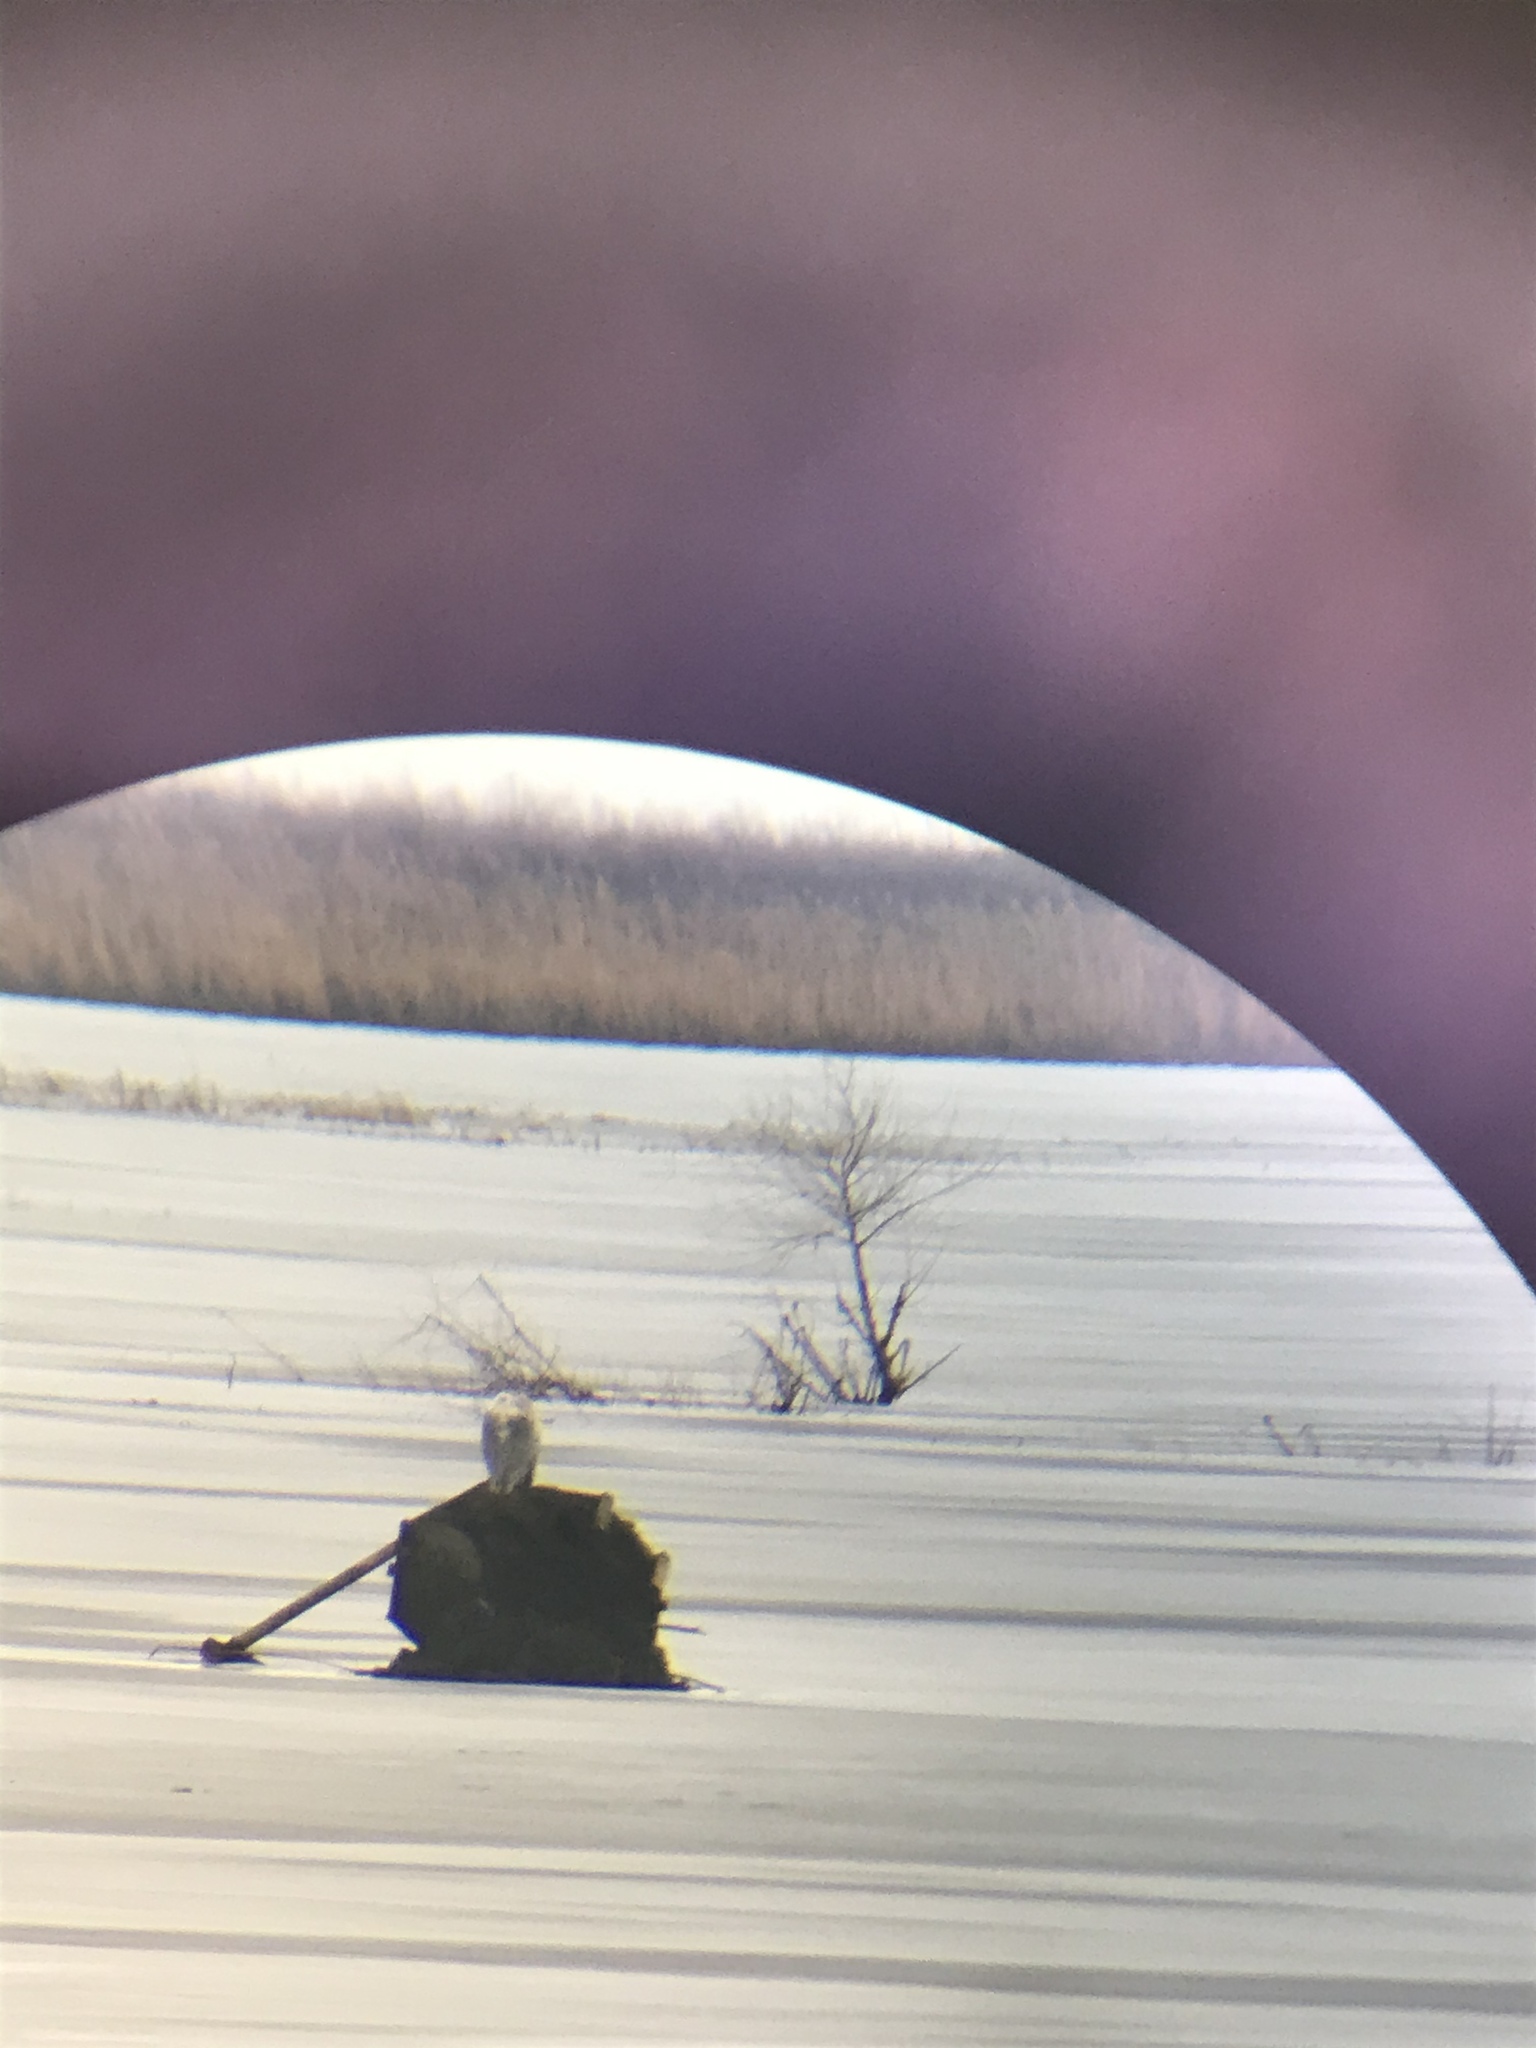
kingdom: Animalia
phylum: Chordata
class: Aves
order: Strigiformes
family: Strigidae
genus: Bubo
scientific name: Bubo scandiacus
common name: Snowy owl
